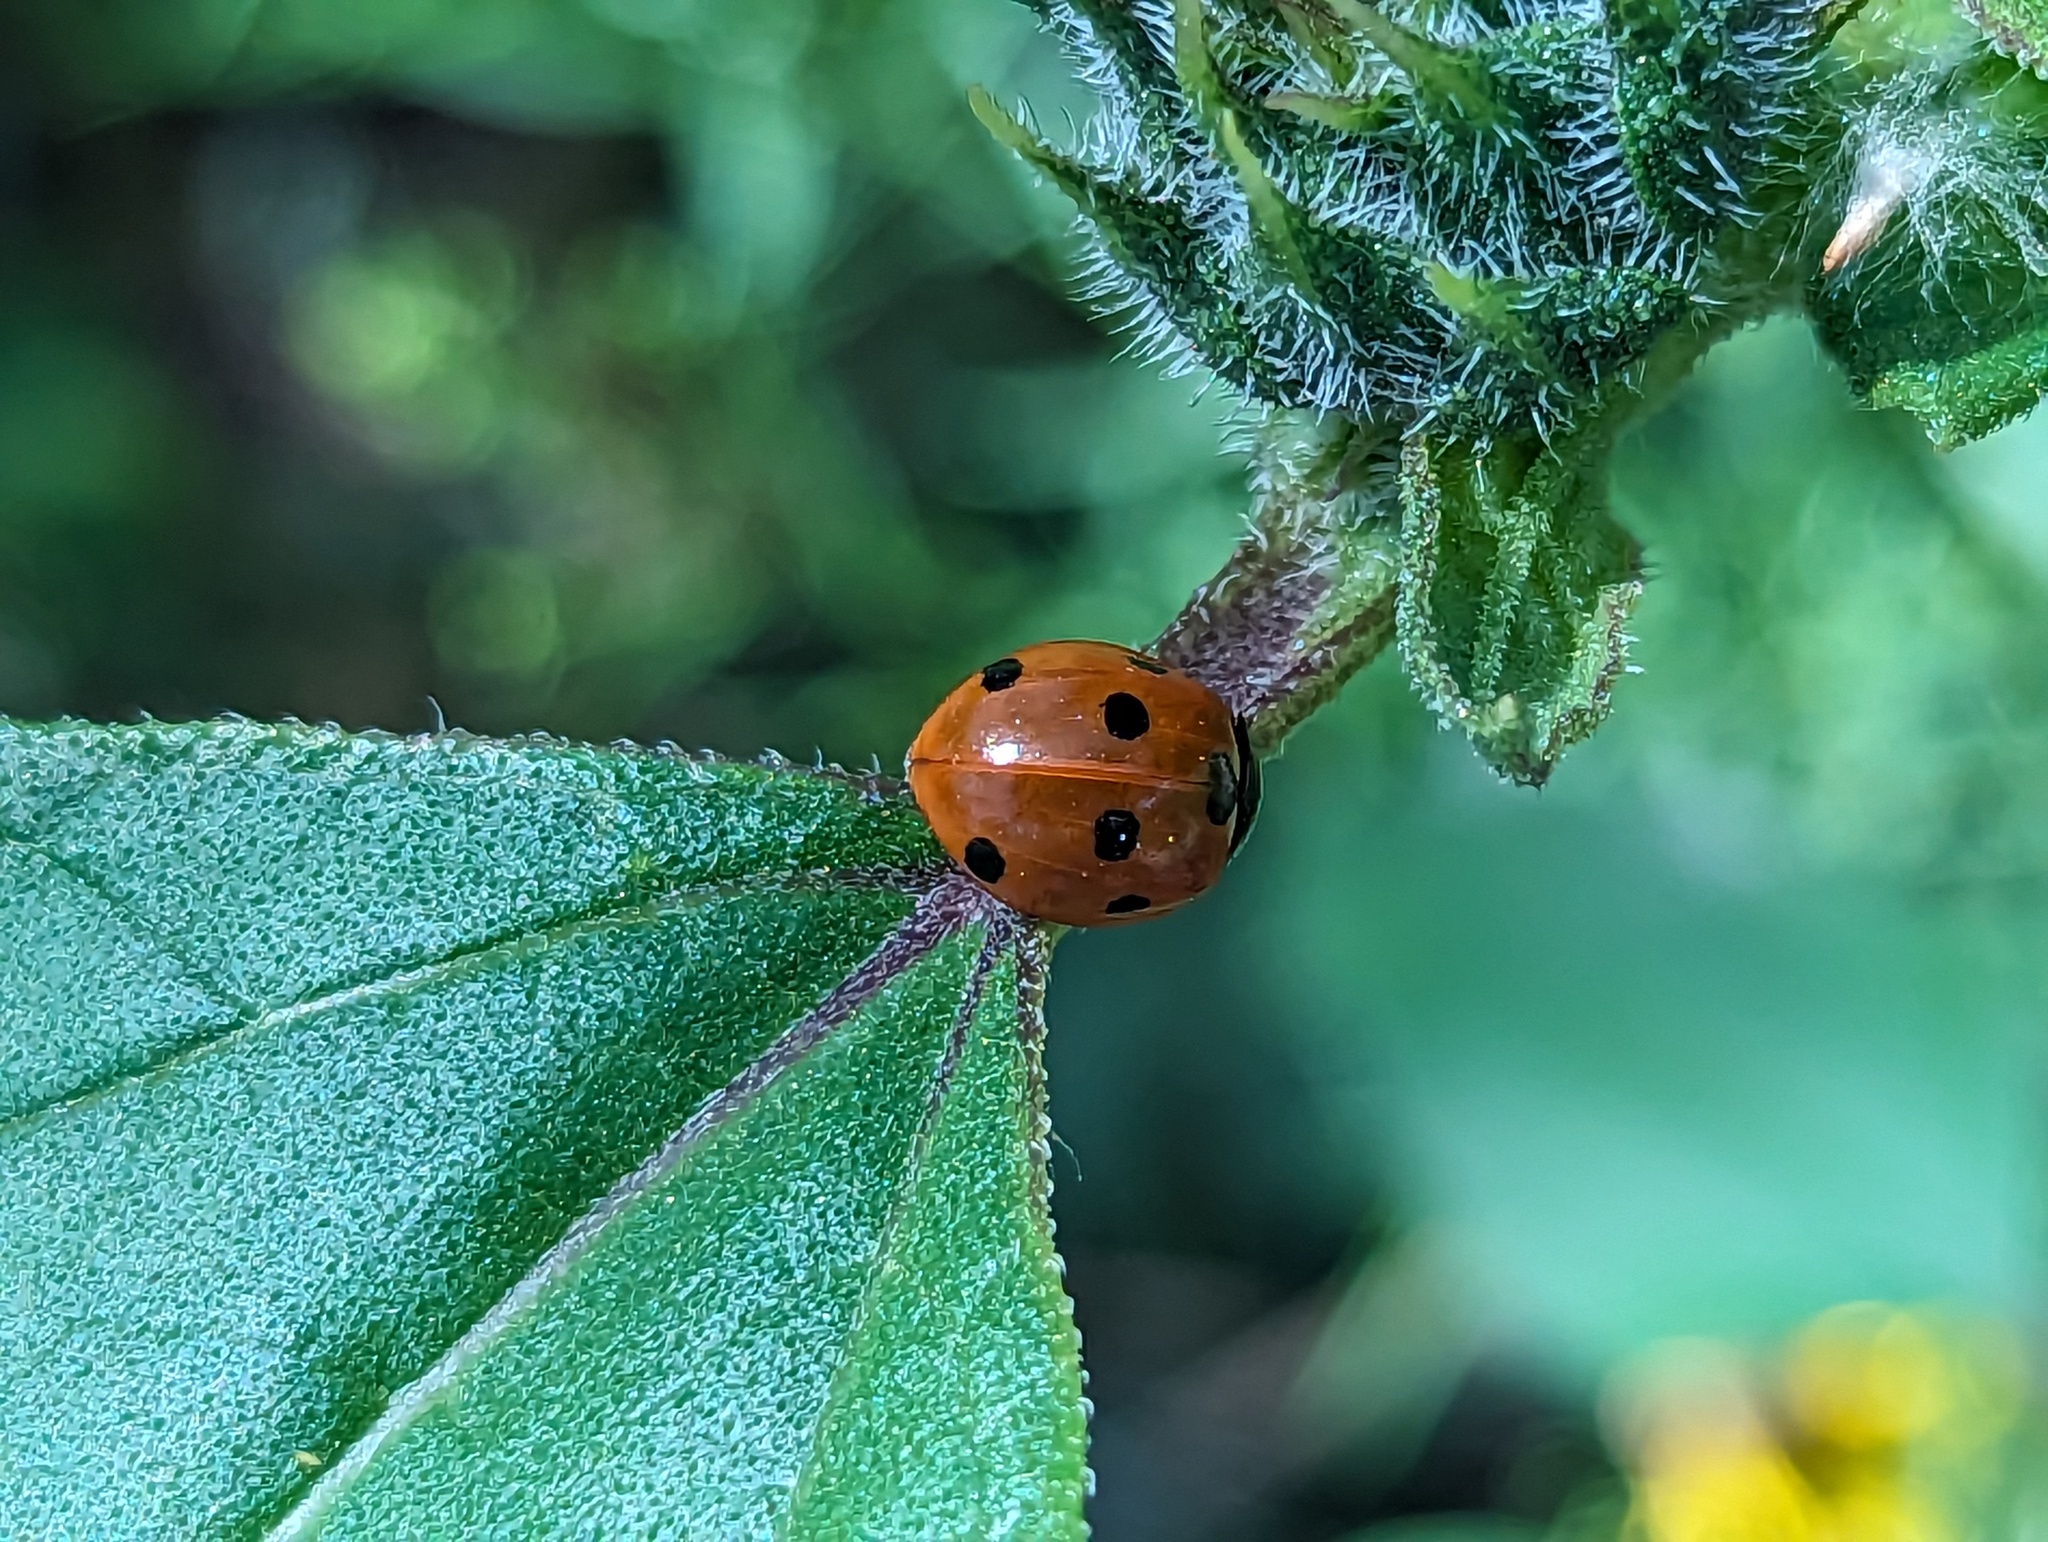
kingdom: Animalia
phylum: Arthropoda
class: Insecta
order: Coleoptera
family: Coccinellidae
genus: Coccinella
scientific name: Coccinella septempunctata
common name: Sevenspotted lady beetle
